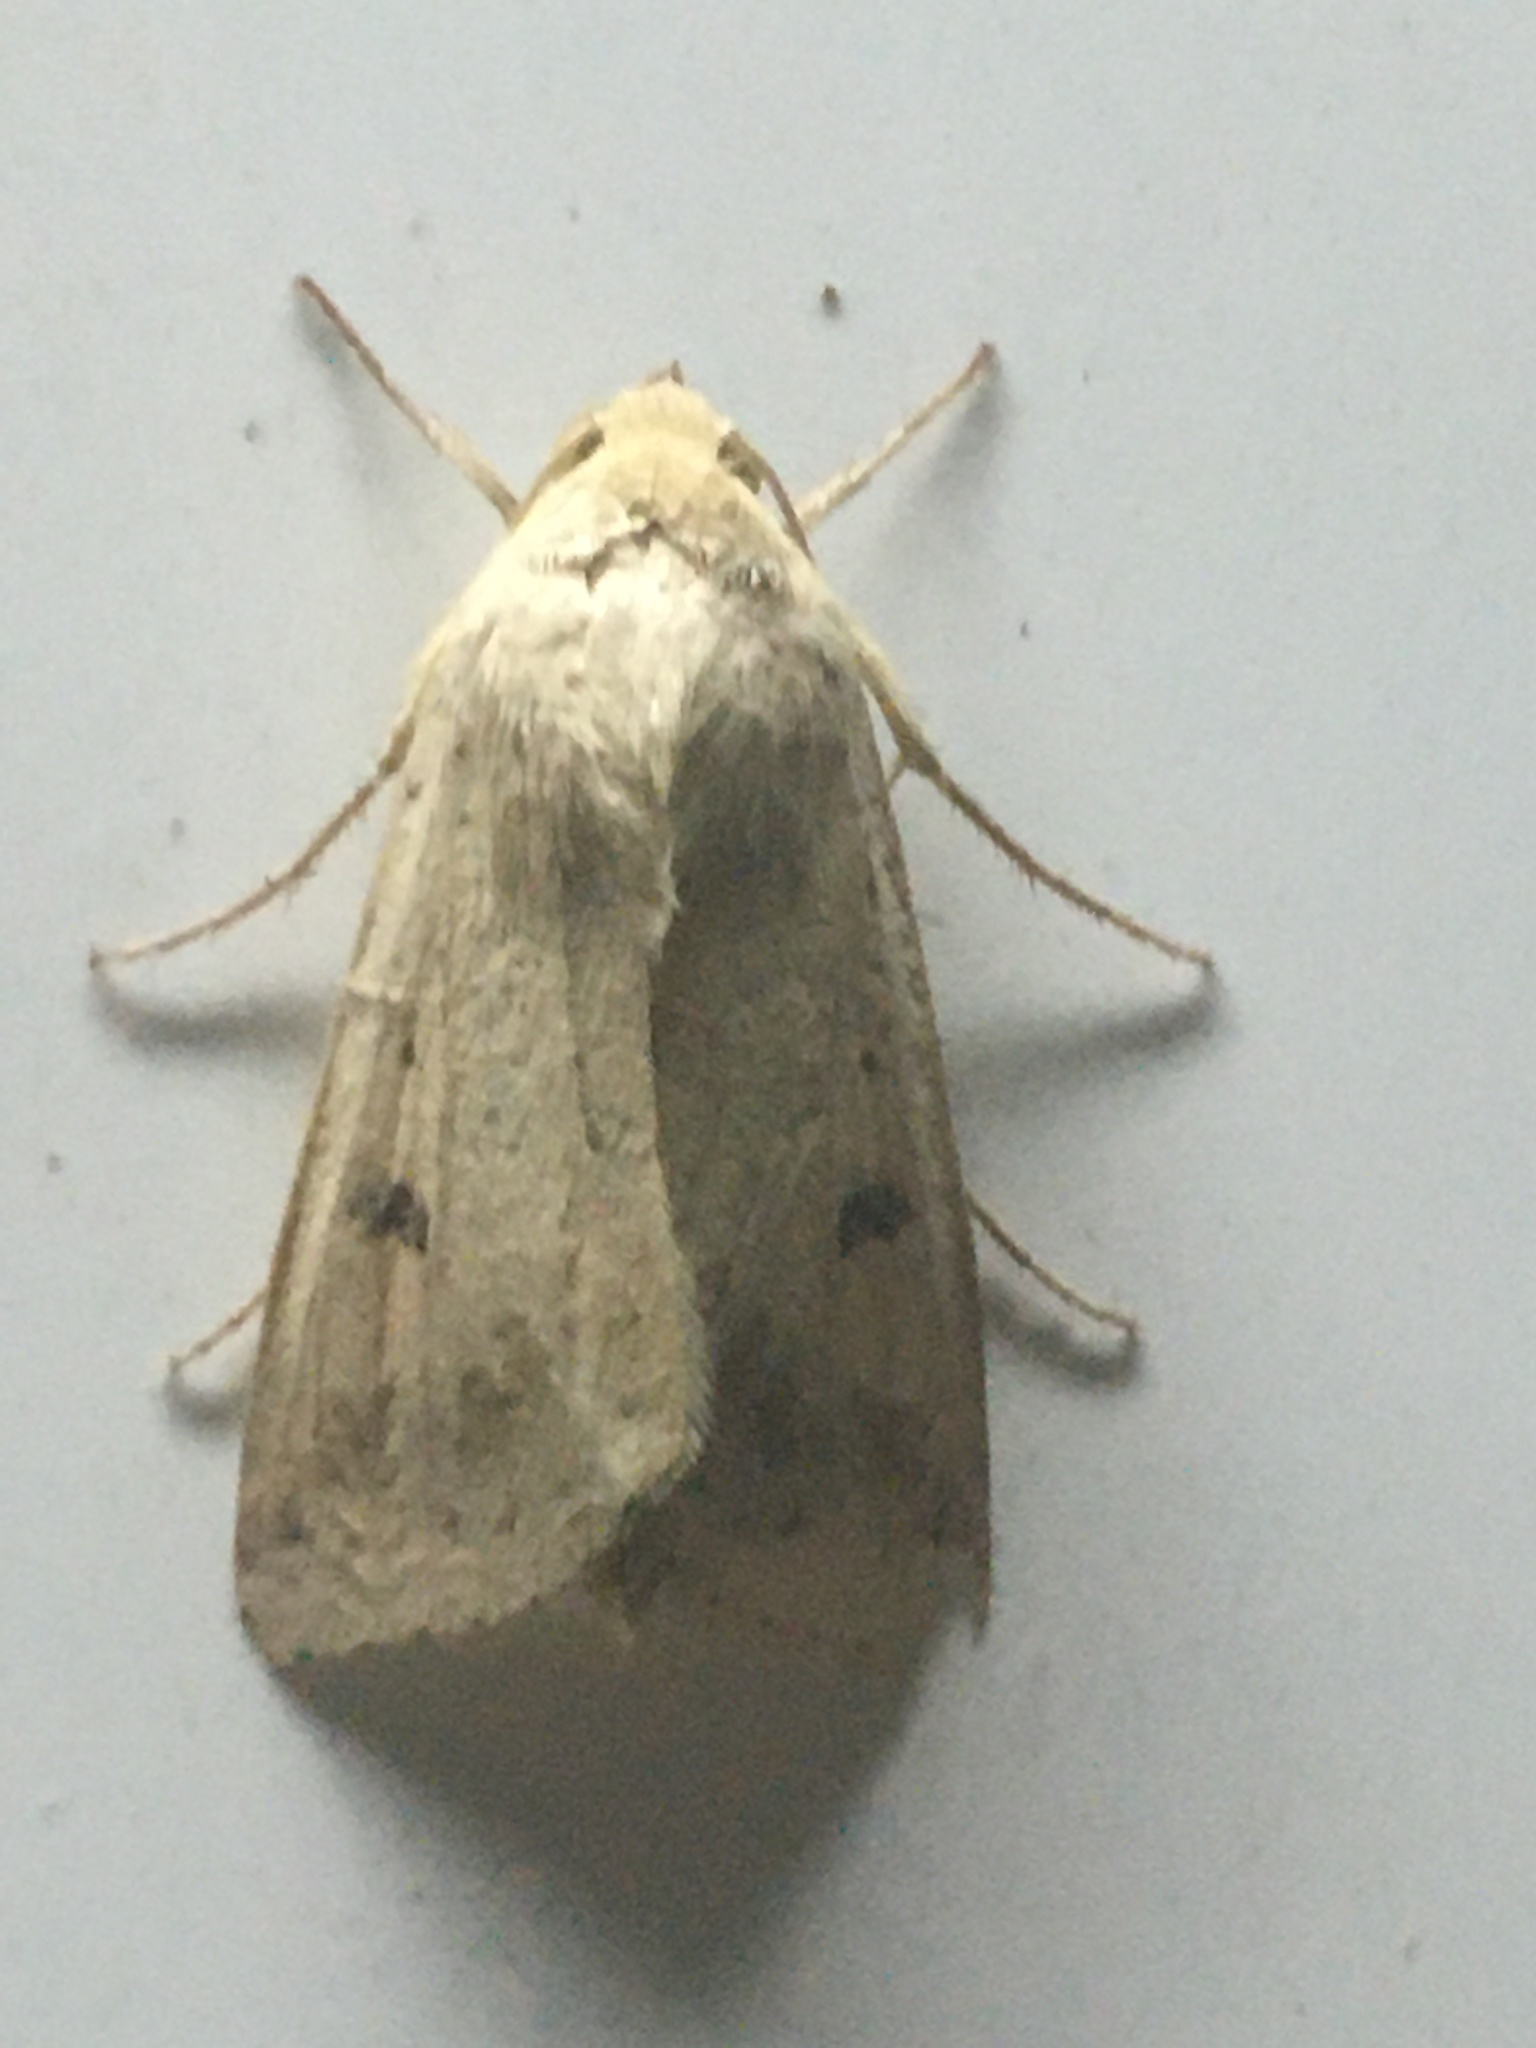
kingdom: Animalia
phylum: Arthropoda
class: Insecta
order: Lepidoptera
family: Noctuidae
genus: Helicoverpa
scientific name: Helicoverpa armigera
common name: Cotton bollworm
